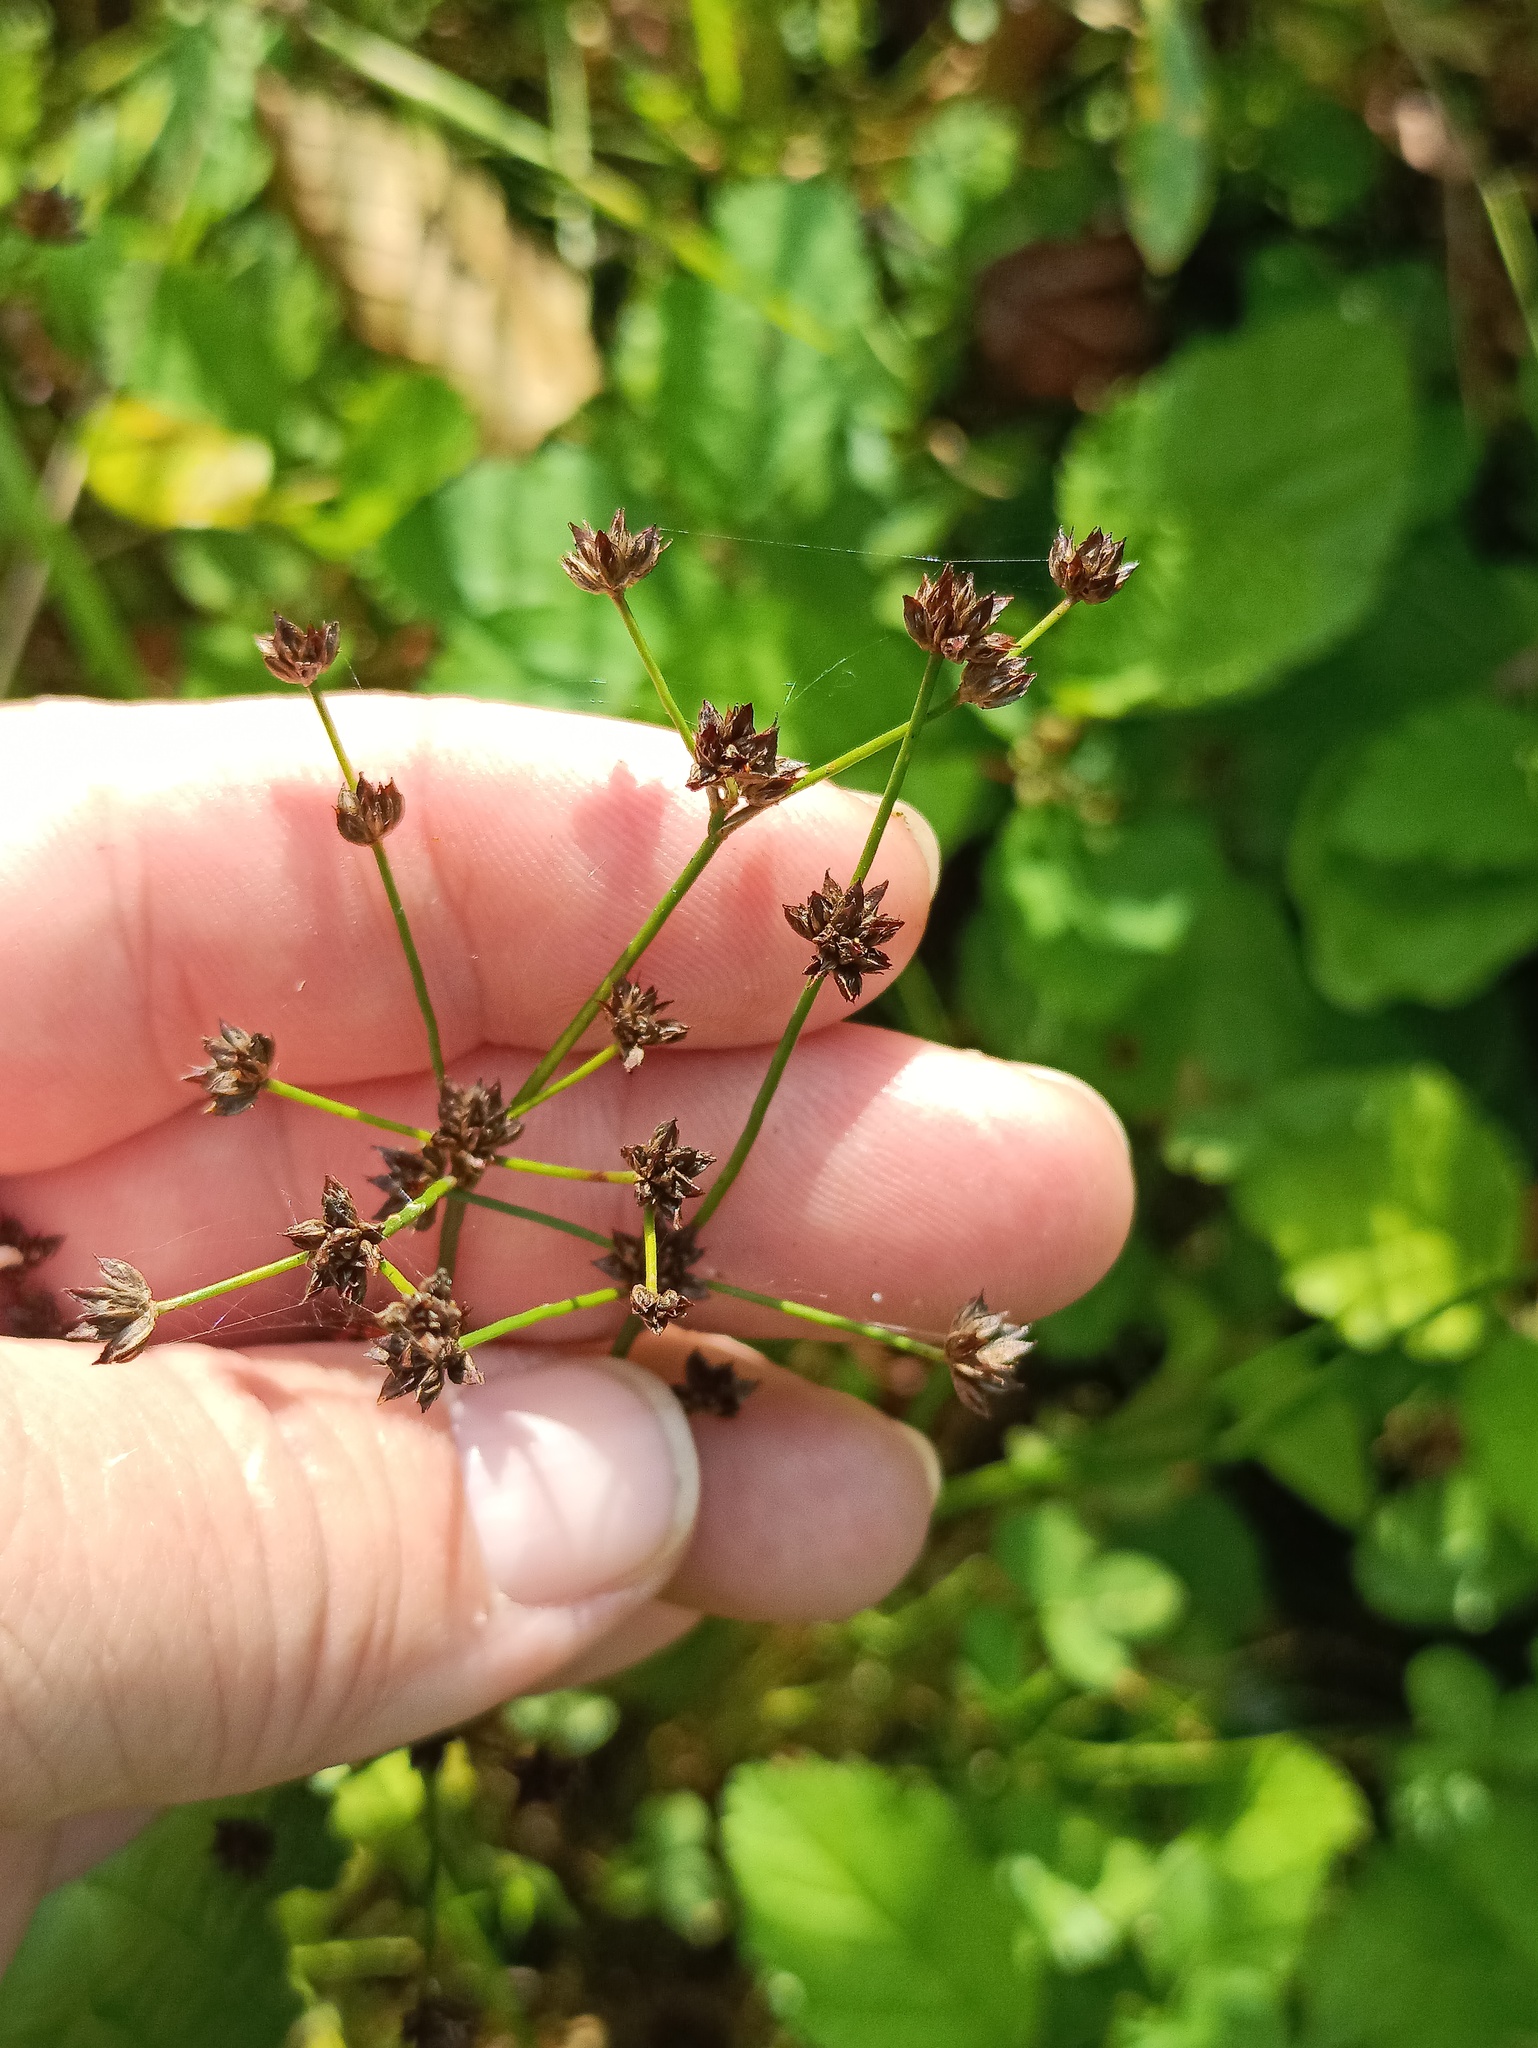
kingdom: Plantae
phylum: Tracheophyta
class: Liliopsida
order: Poales
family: Juncaceae
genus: Juncus
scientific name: Juncus articulatus
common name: Jointed rush
